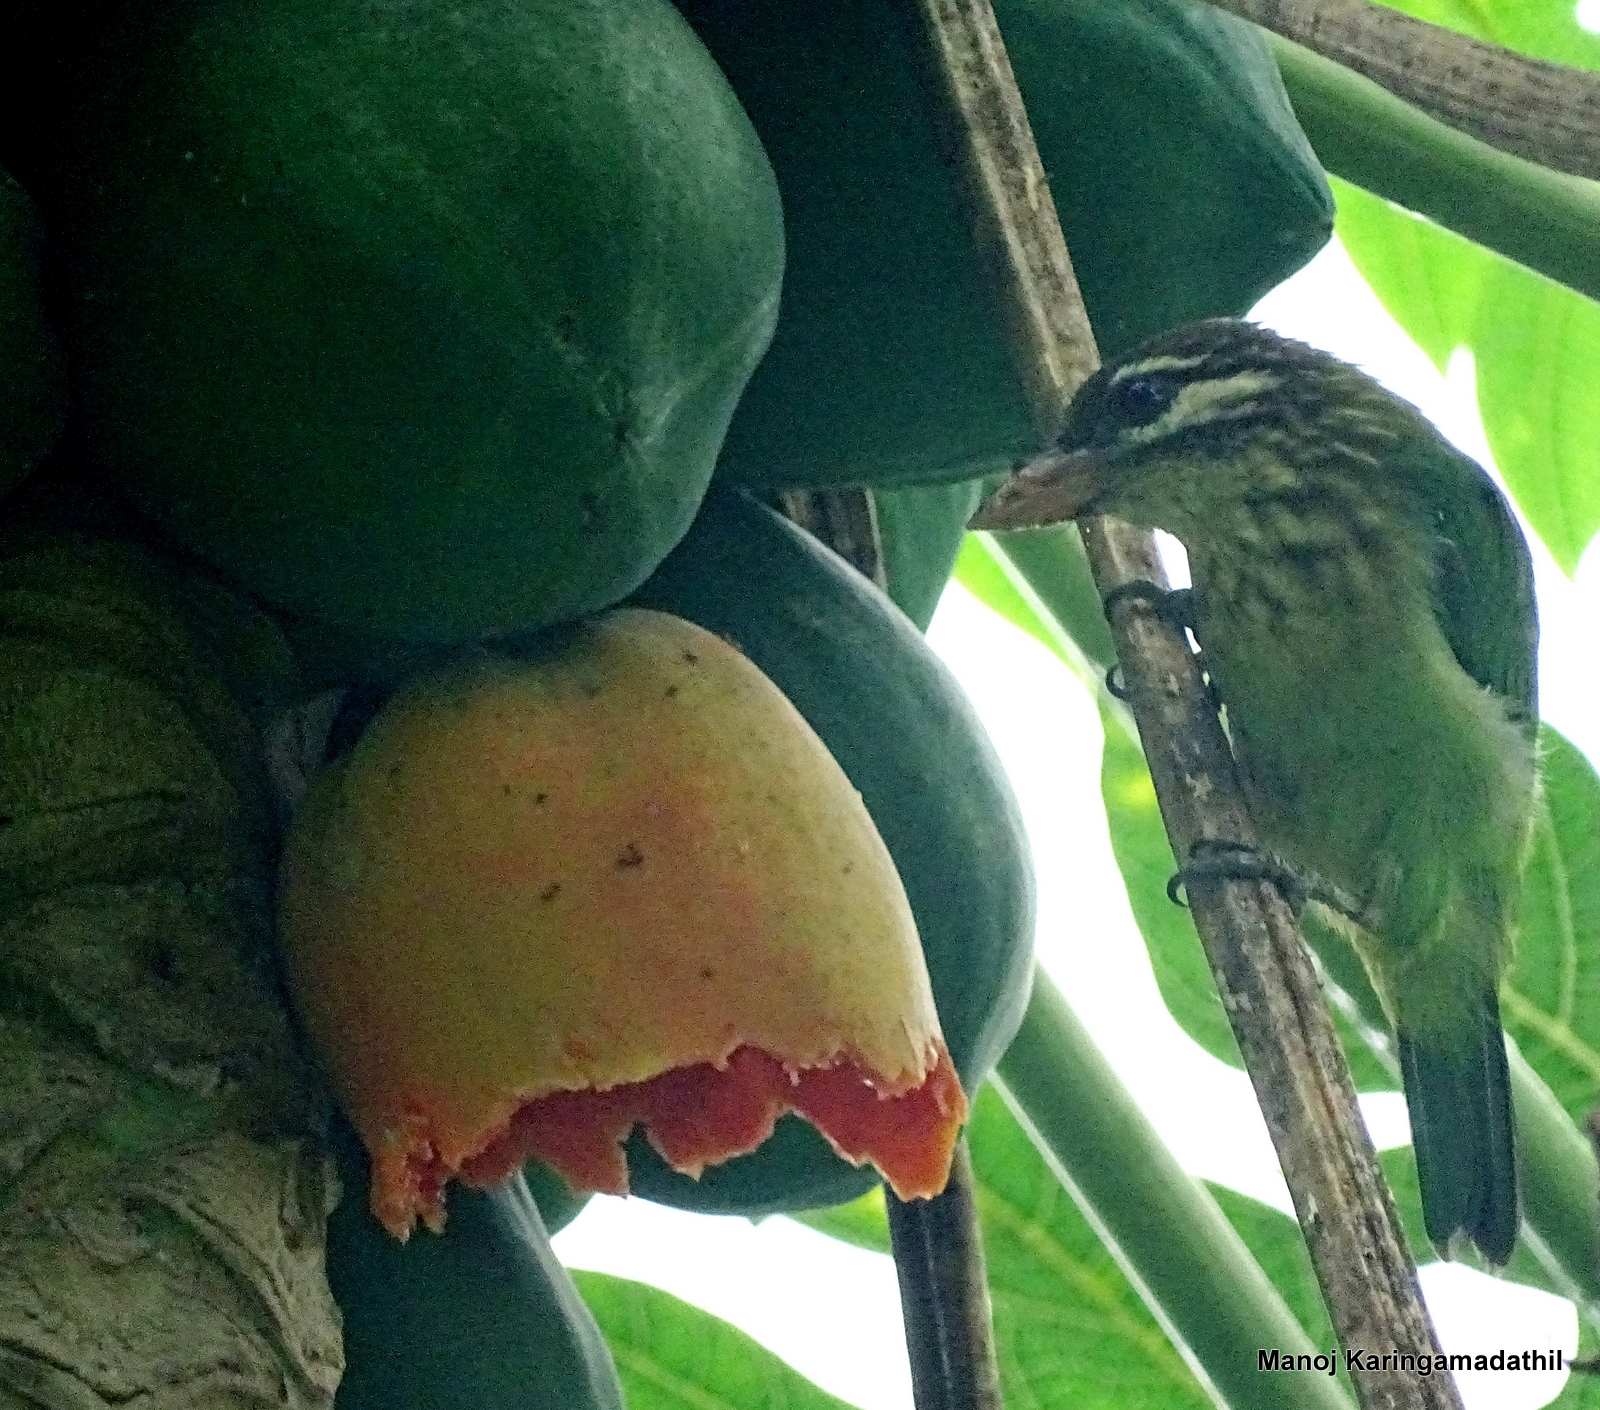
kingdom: Animalia
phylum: Chordata
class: Aves
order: Piciformes
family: Megalaimidae
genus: Psilopogon
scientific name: Psilopogon viridis
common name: White-cheeked barbet
